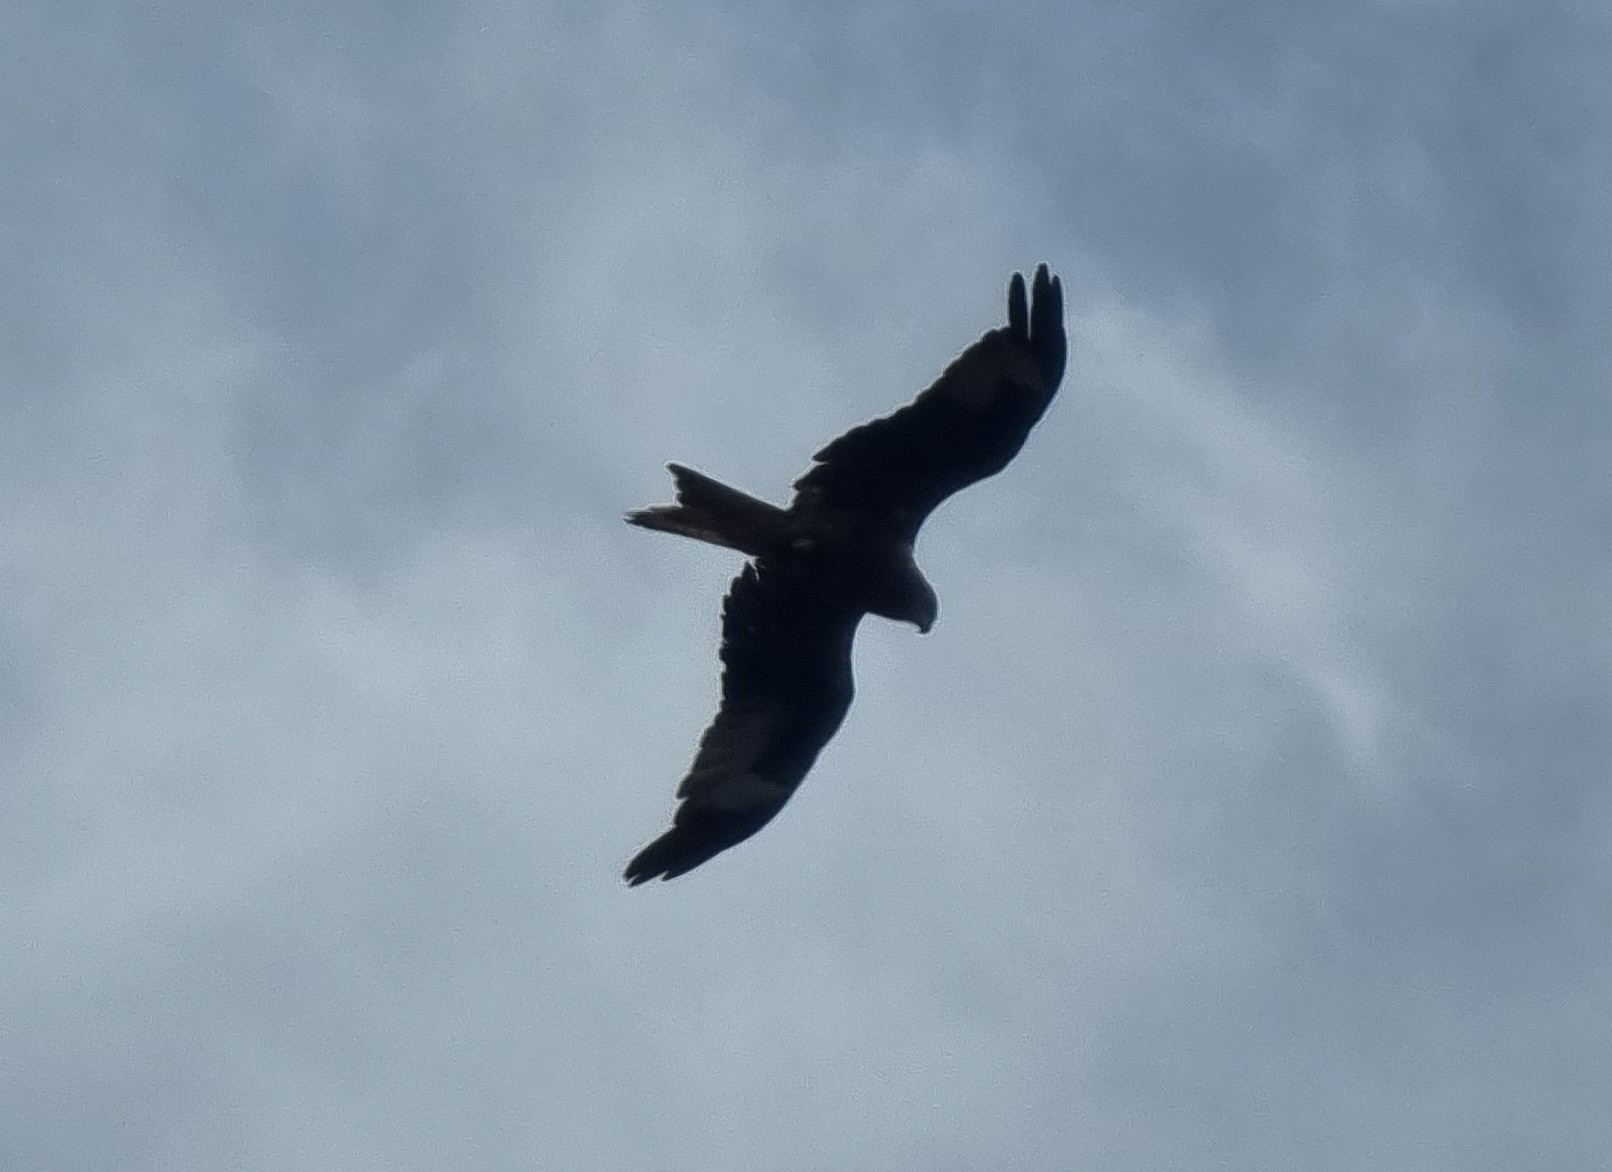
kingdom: Animalia
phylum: Chordata
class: Aves
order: Accipitriformes
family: Accipitridae
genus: Milvus
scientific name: Milvus milvus
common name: Red kite
